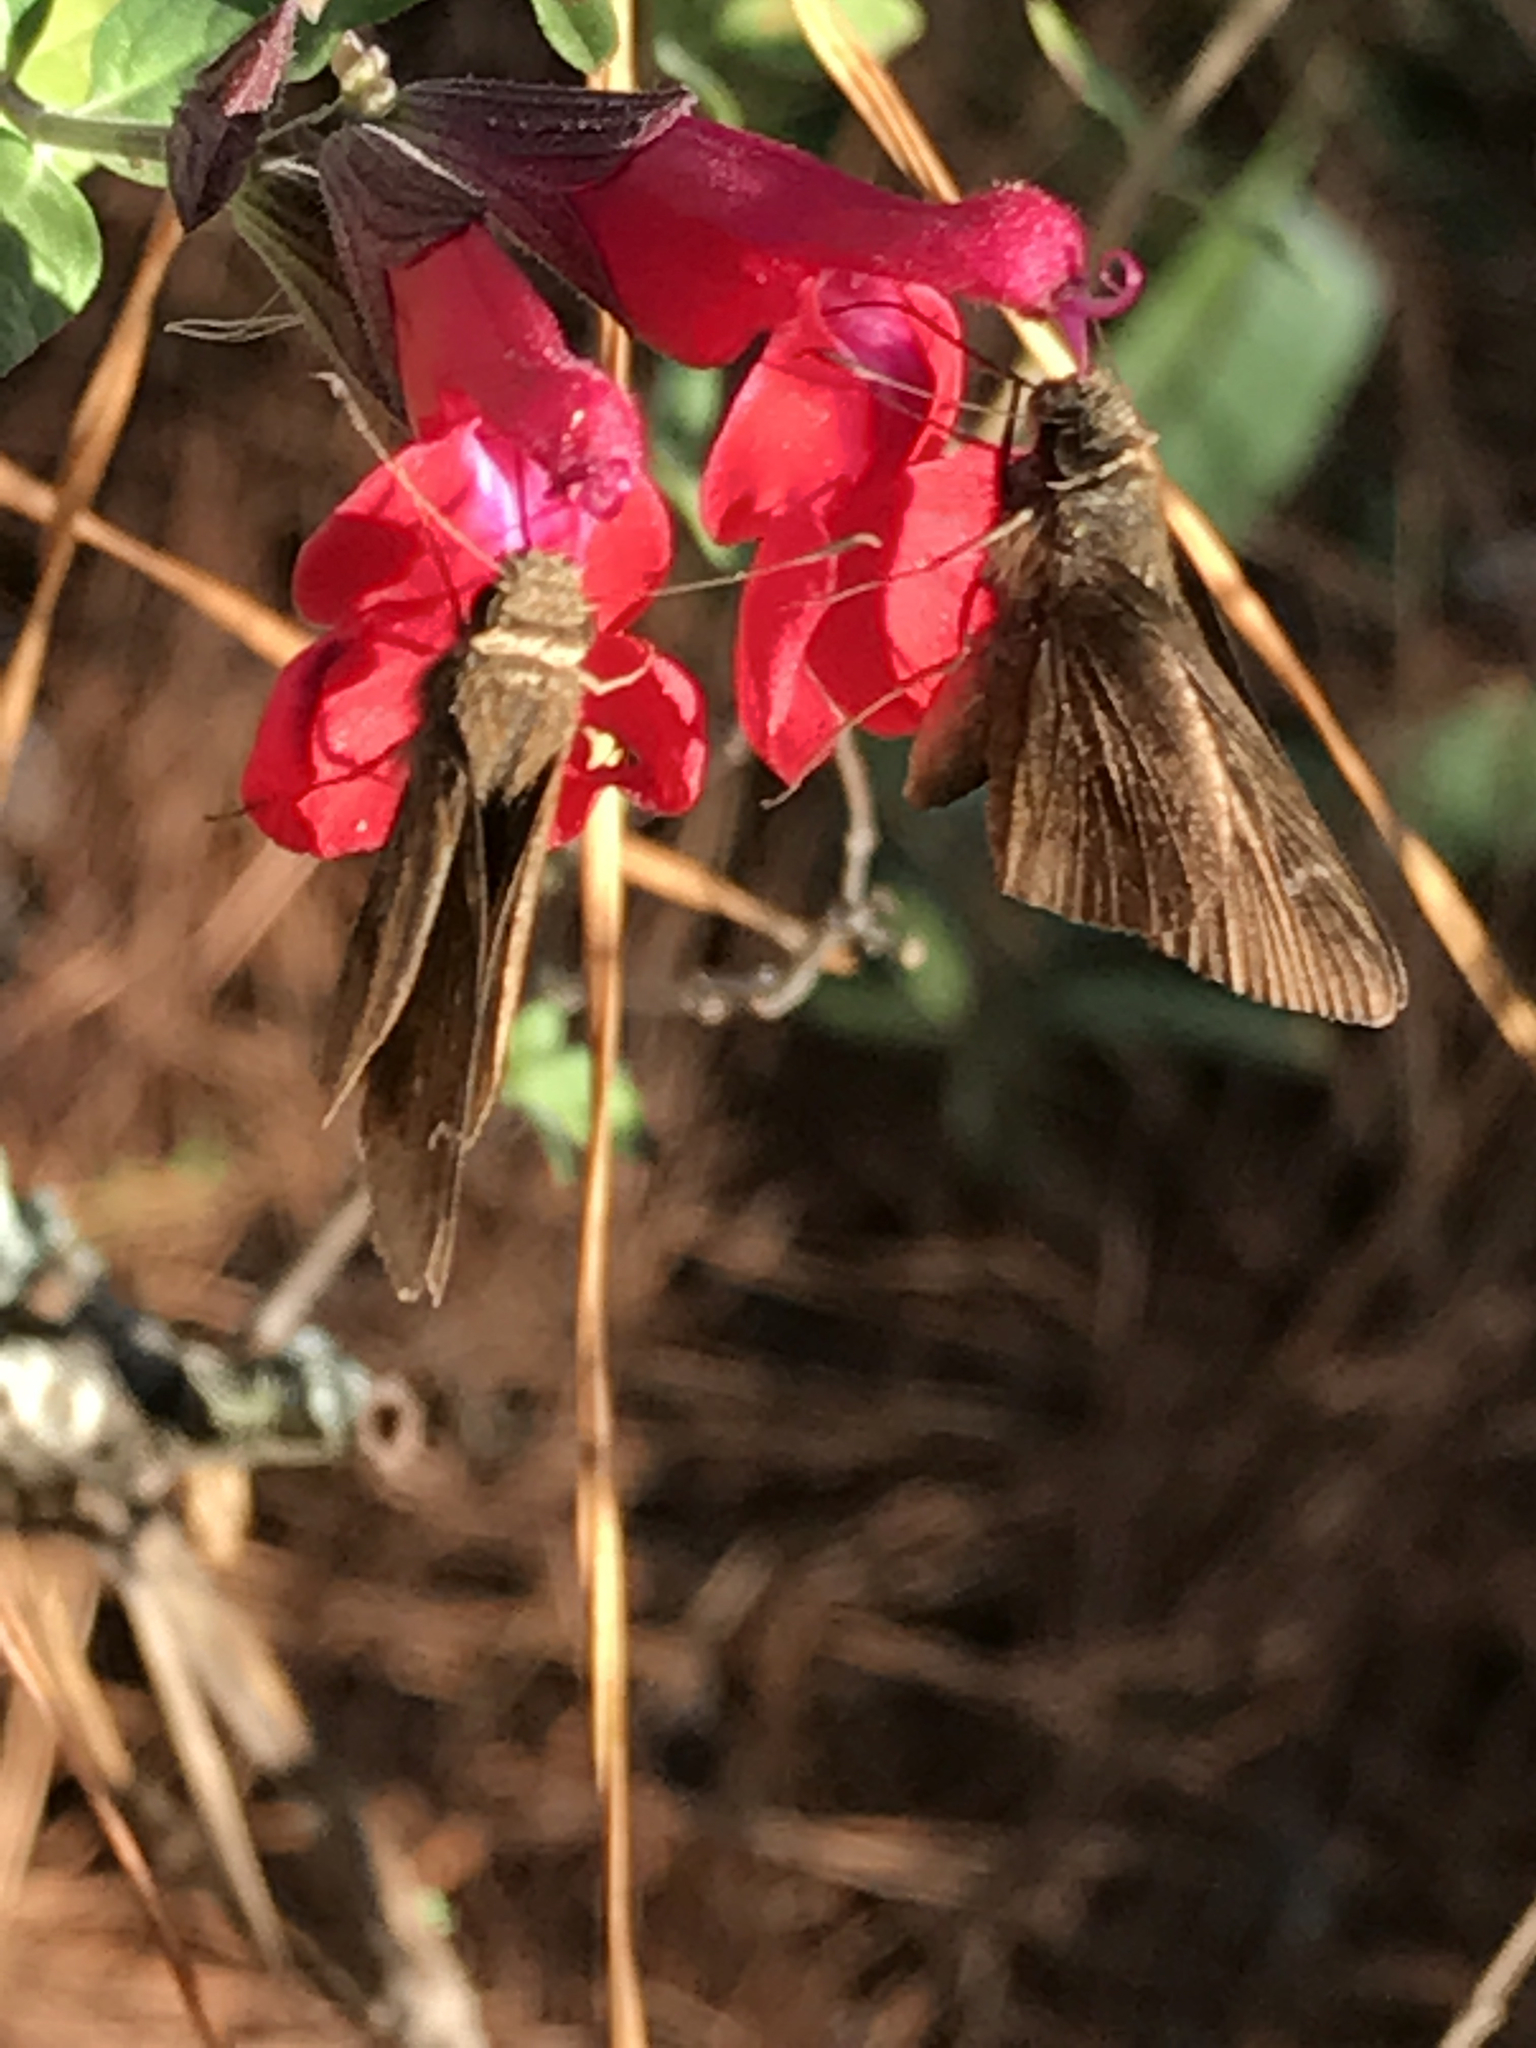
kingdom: Animalia
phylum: Arthropoda
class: Insecta
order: Lepidoptera
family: Hesperiidae
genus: Panoquina
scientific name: Panoquina ocola
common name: Ocola skipper
